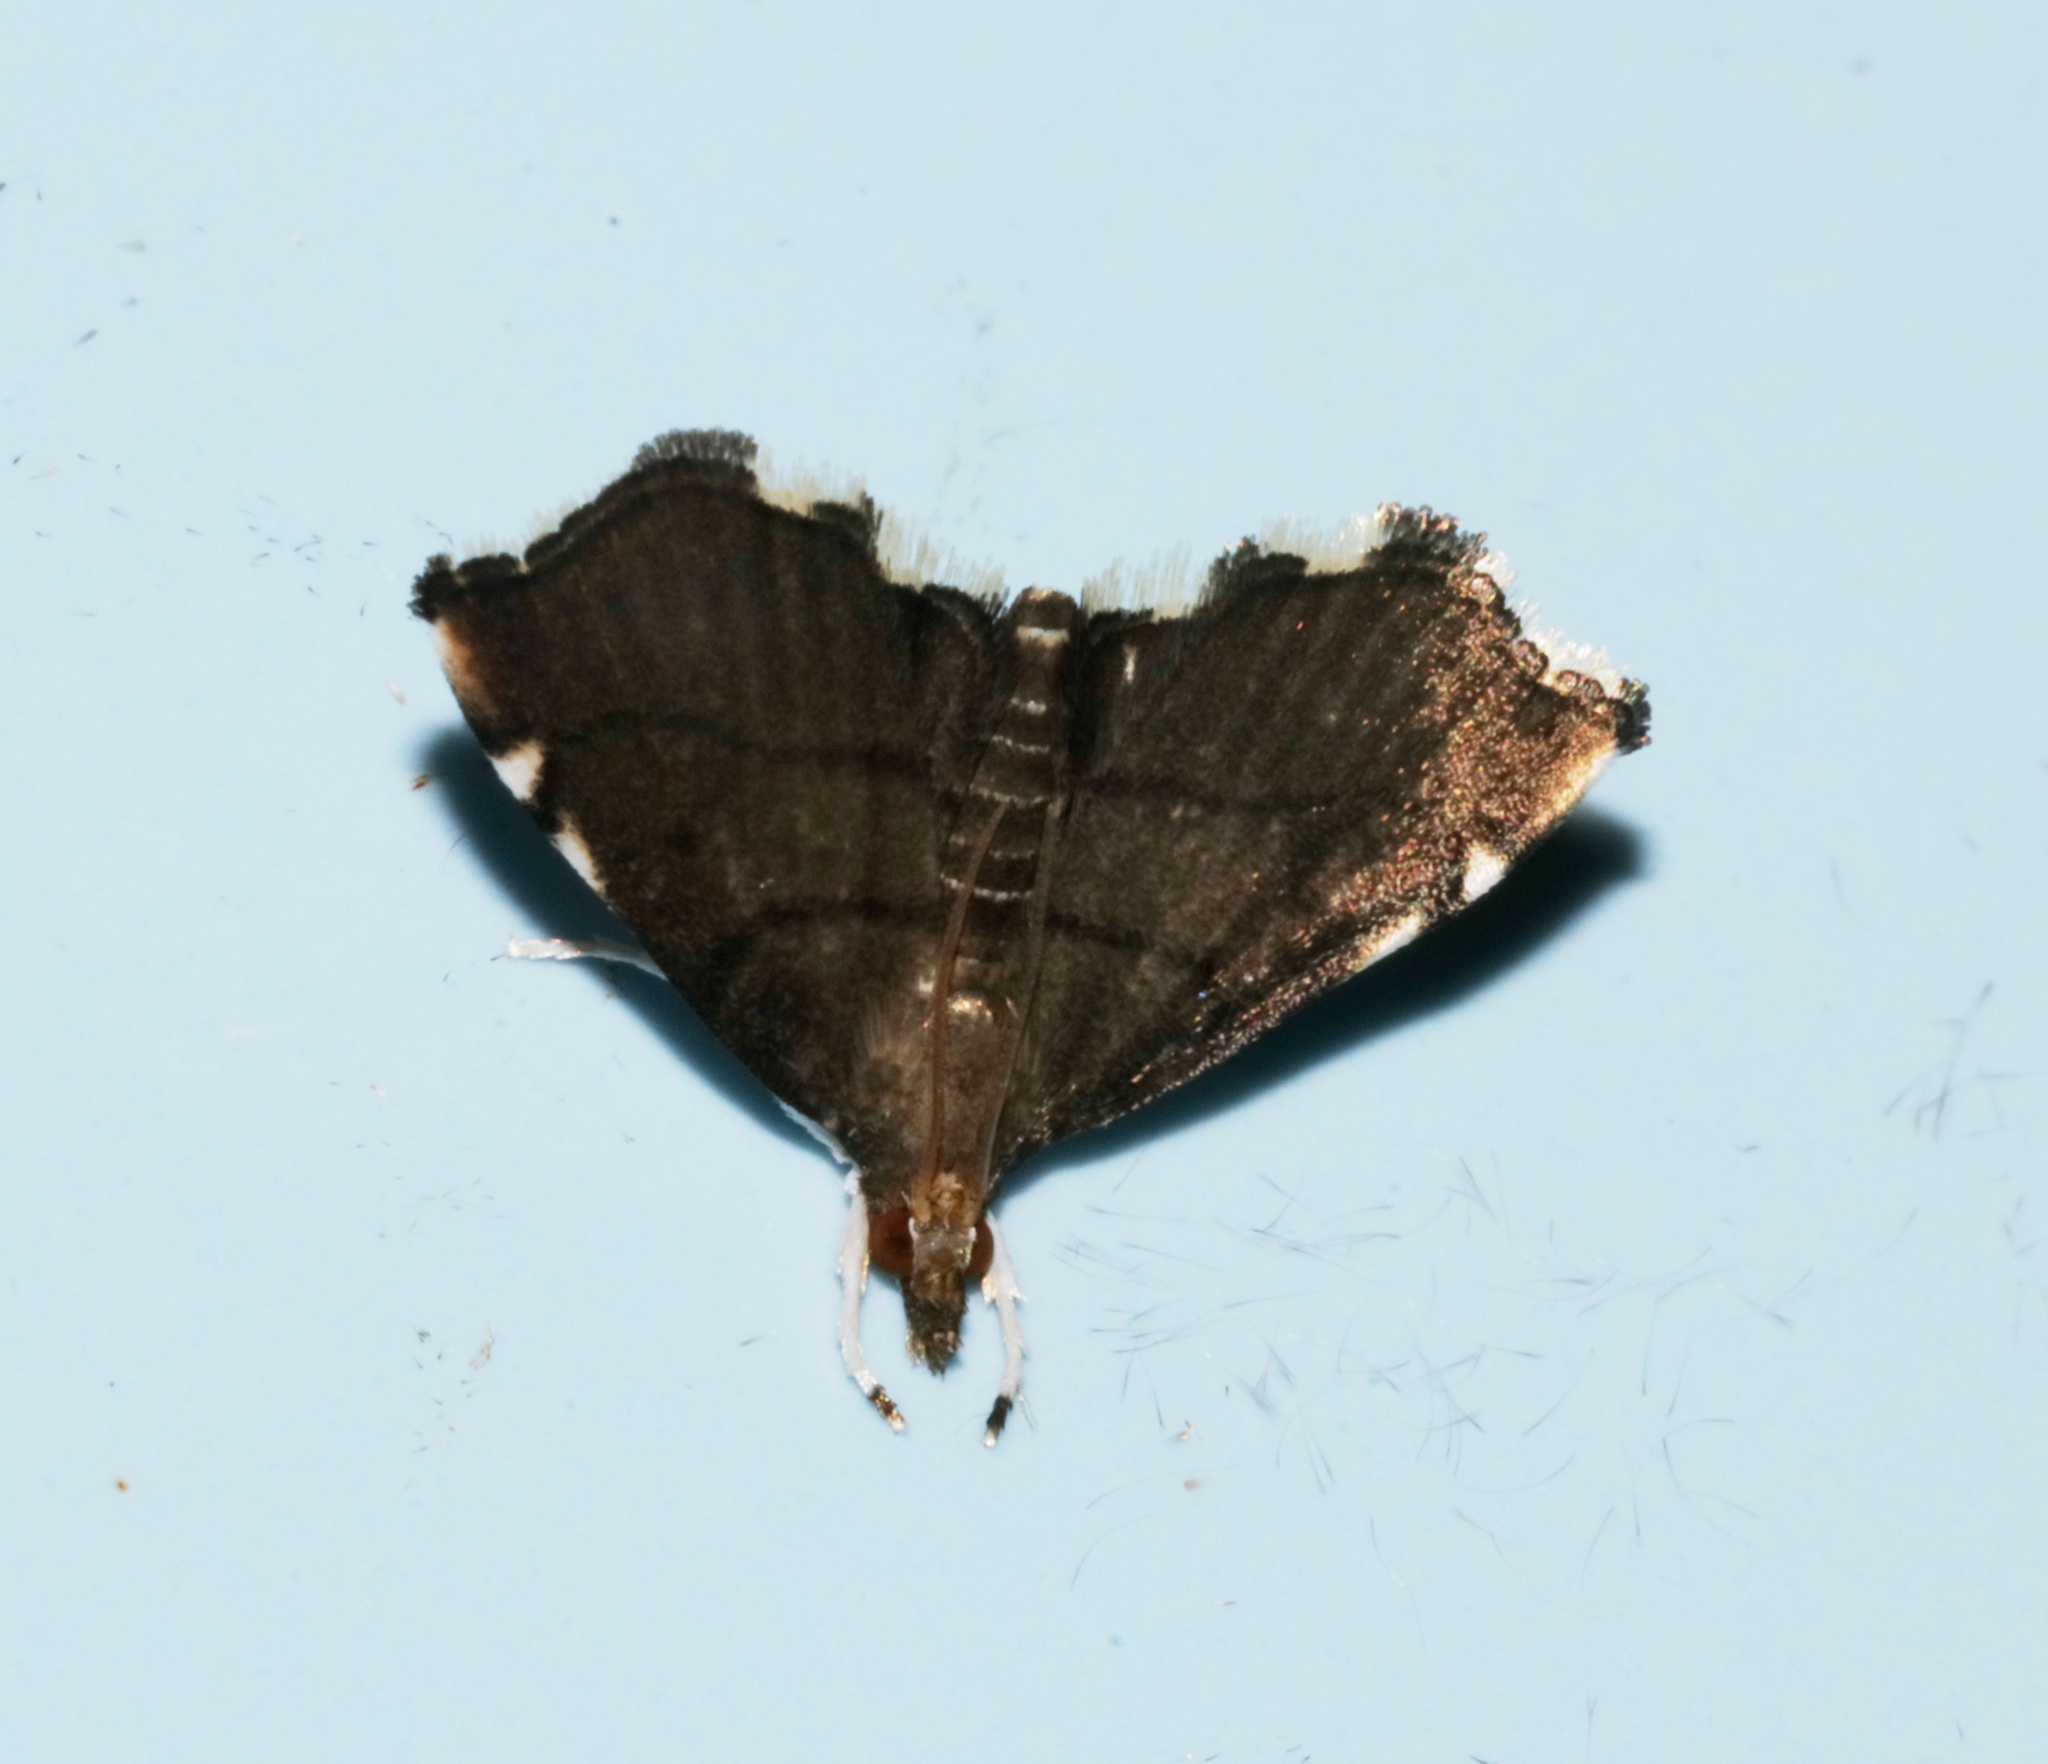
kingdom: Animalia
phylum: Arthropoda
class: Insecta
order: Lepidoptera
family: Crambidae
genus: Acropentias
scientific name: Acropentias
